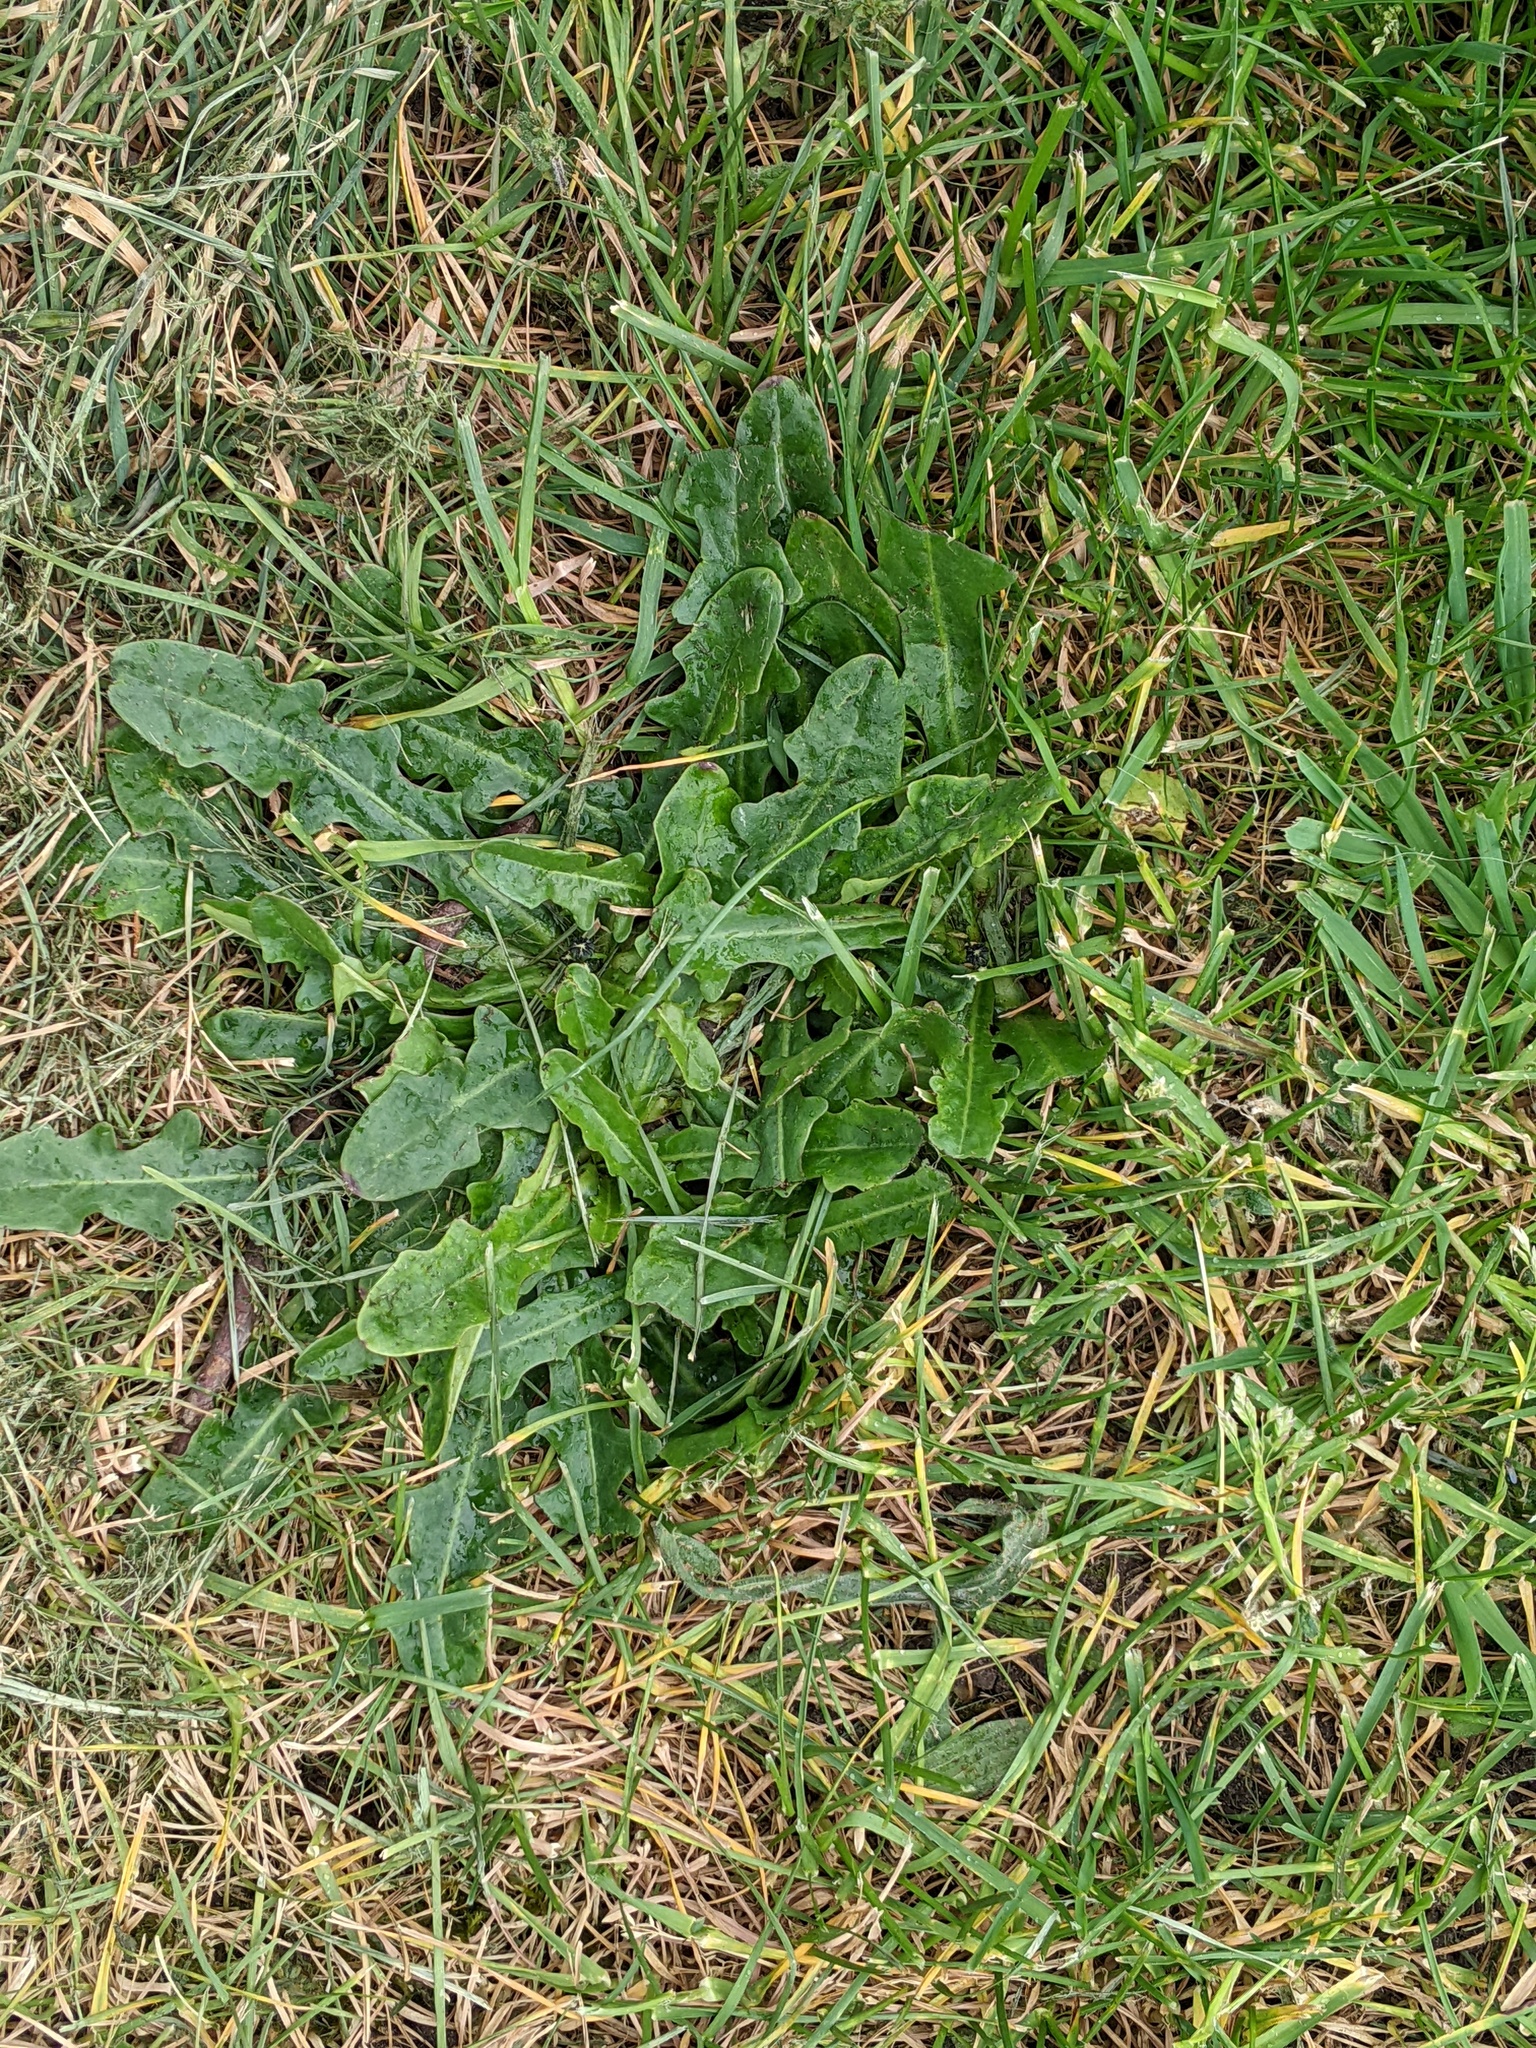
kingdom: Plantae
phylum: Tracheophyta
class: Magnoliopsida
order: Asterales
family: Asteraceae
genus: Hypochaeris
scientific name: Hypochaeris radicata
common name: Flatweed
